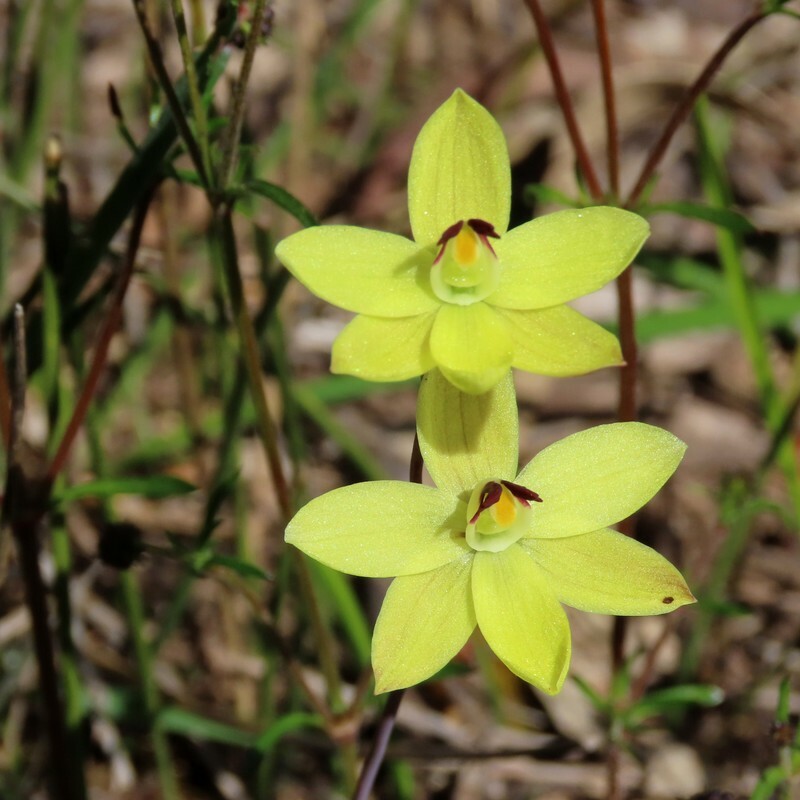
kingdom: Plantae
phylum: Tracheophyta
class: Liliopsida
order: Asparagales
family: Orchidaceae
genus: Thelymitra
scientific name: Thelymitra antennifera
